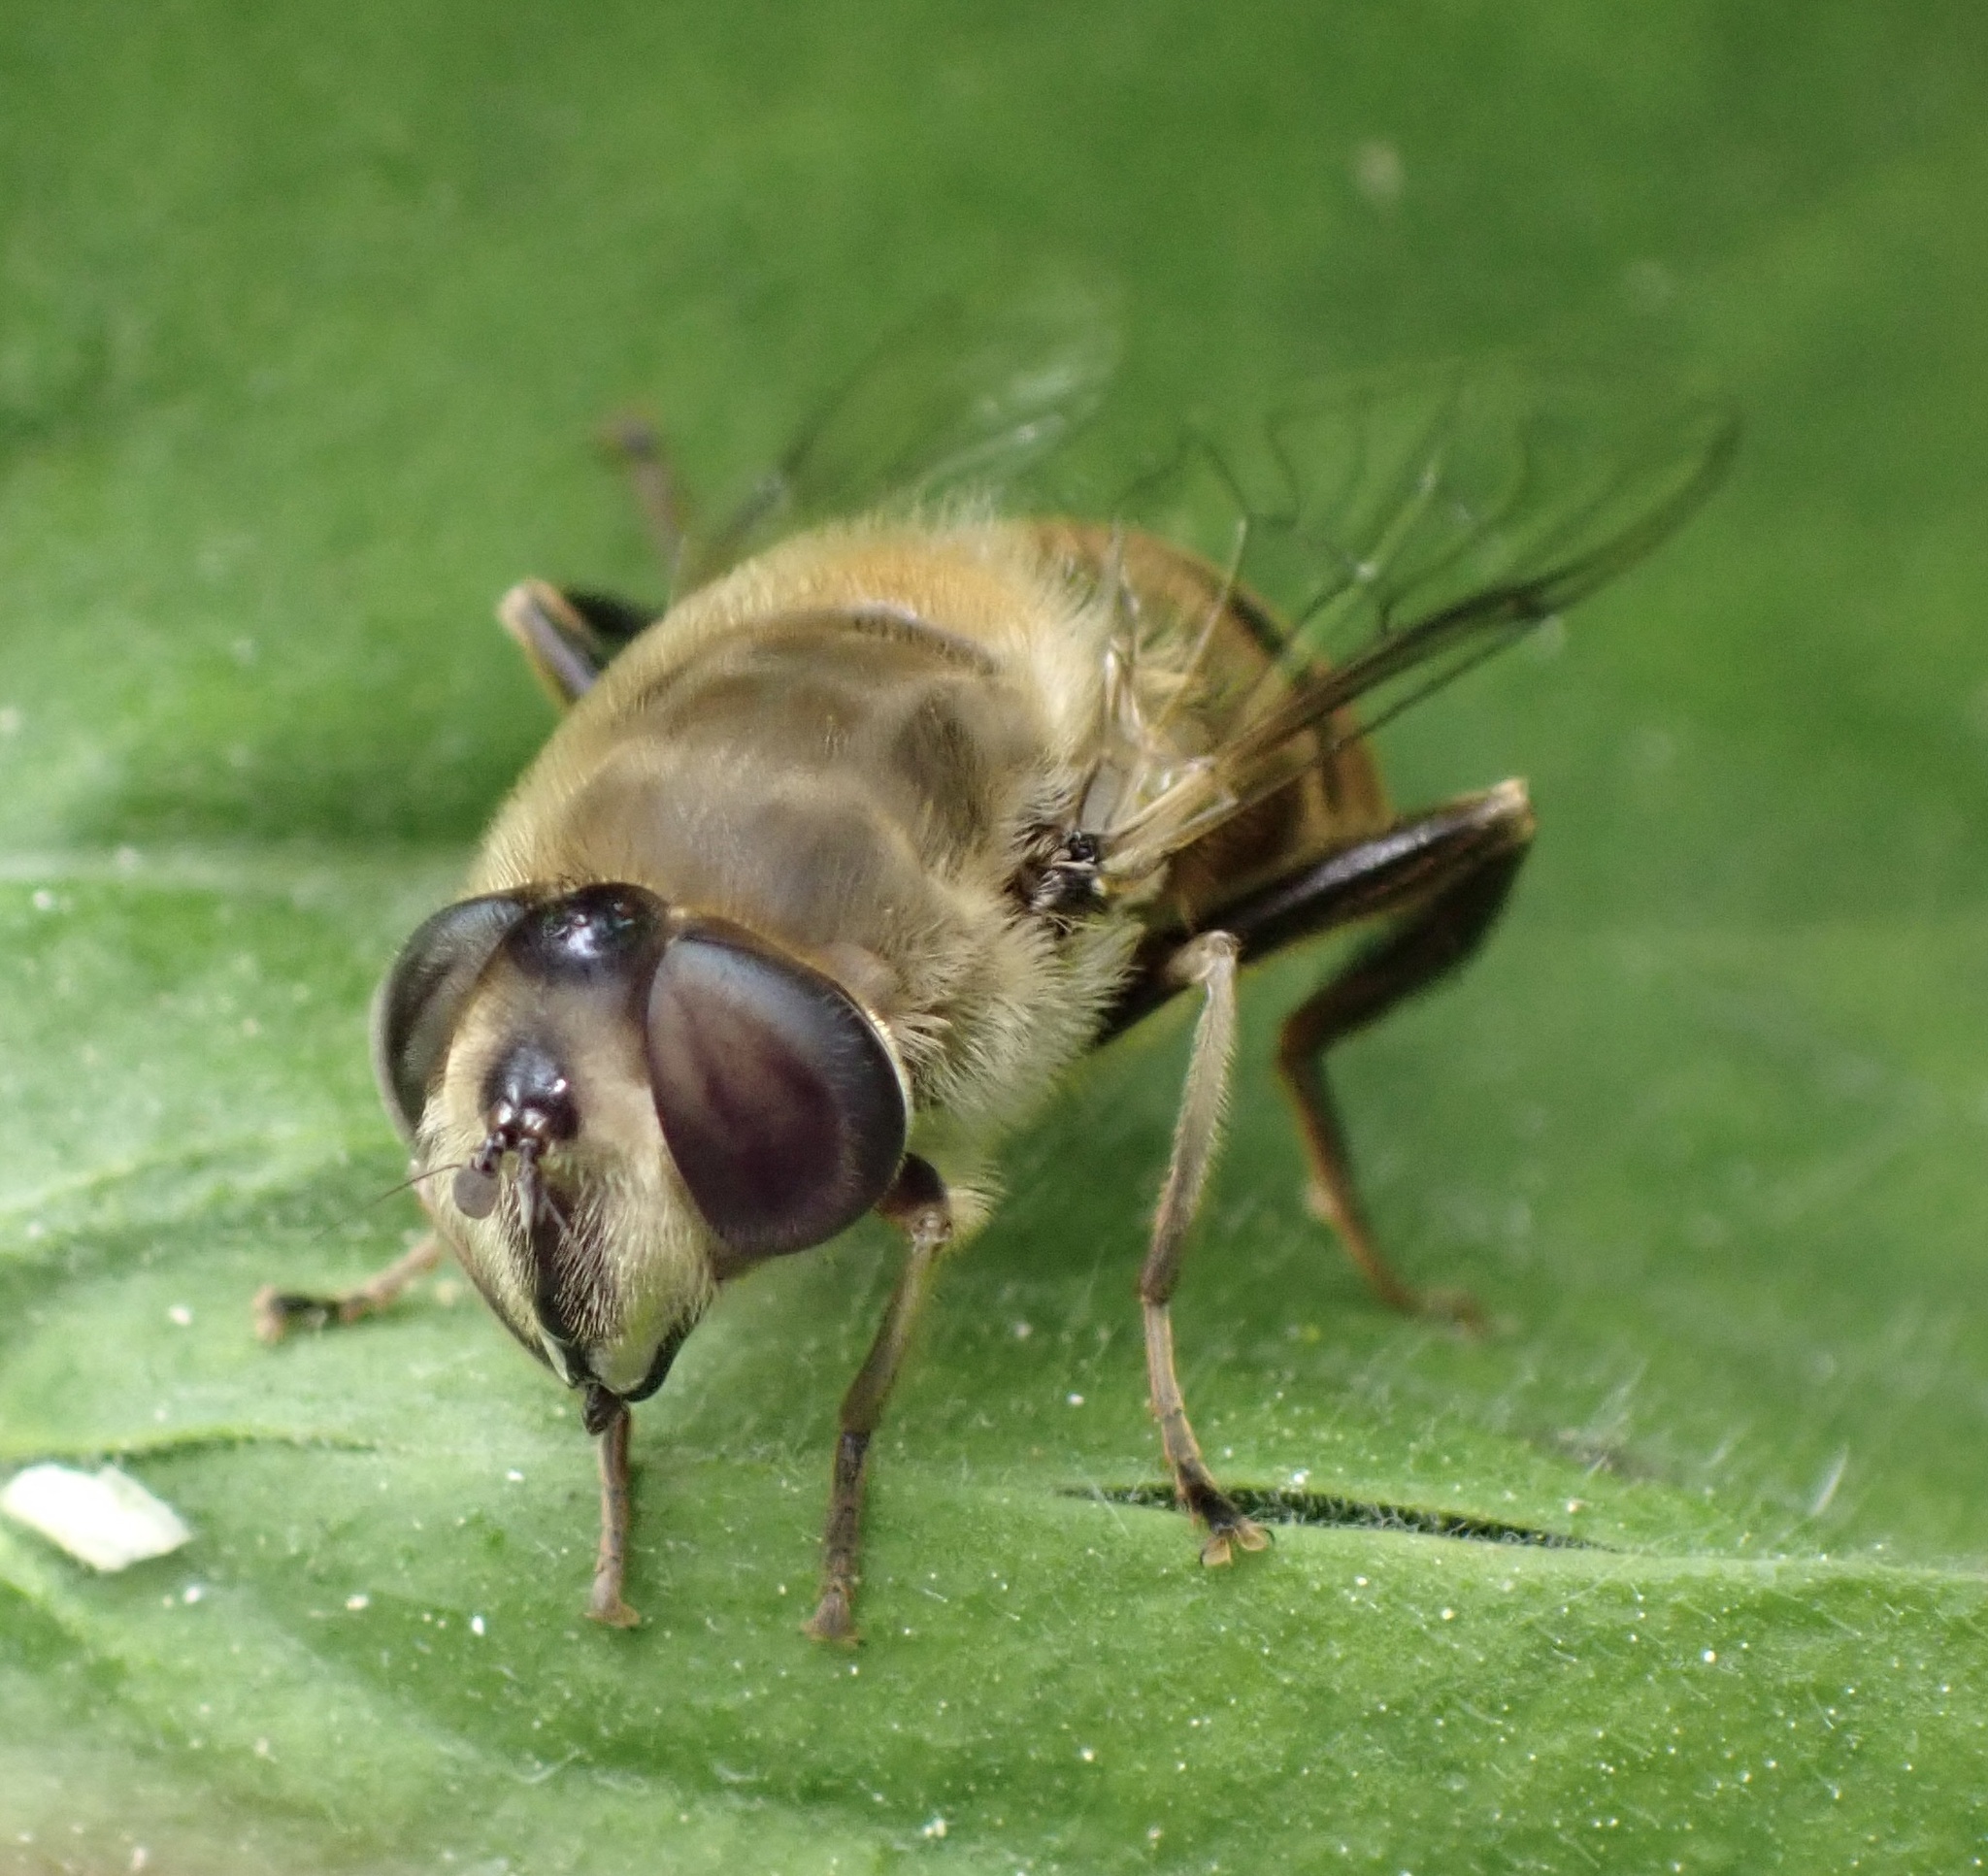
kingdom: Animalia
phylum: Arthropoda
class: Insecta
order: Diptera
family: Syrphidae
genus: Eristalis
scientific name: Eristalis tenax
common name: Drone fly
